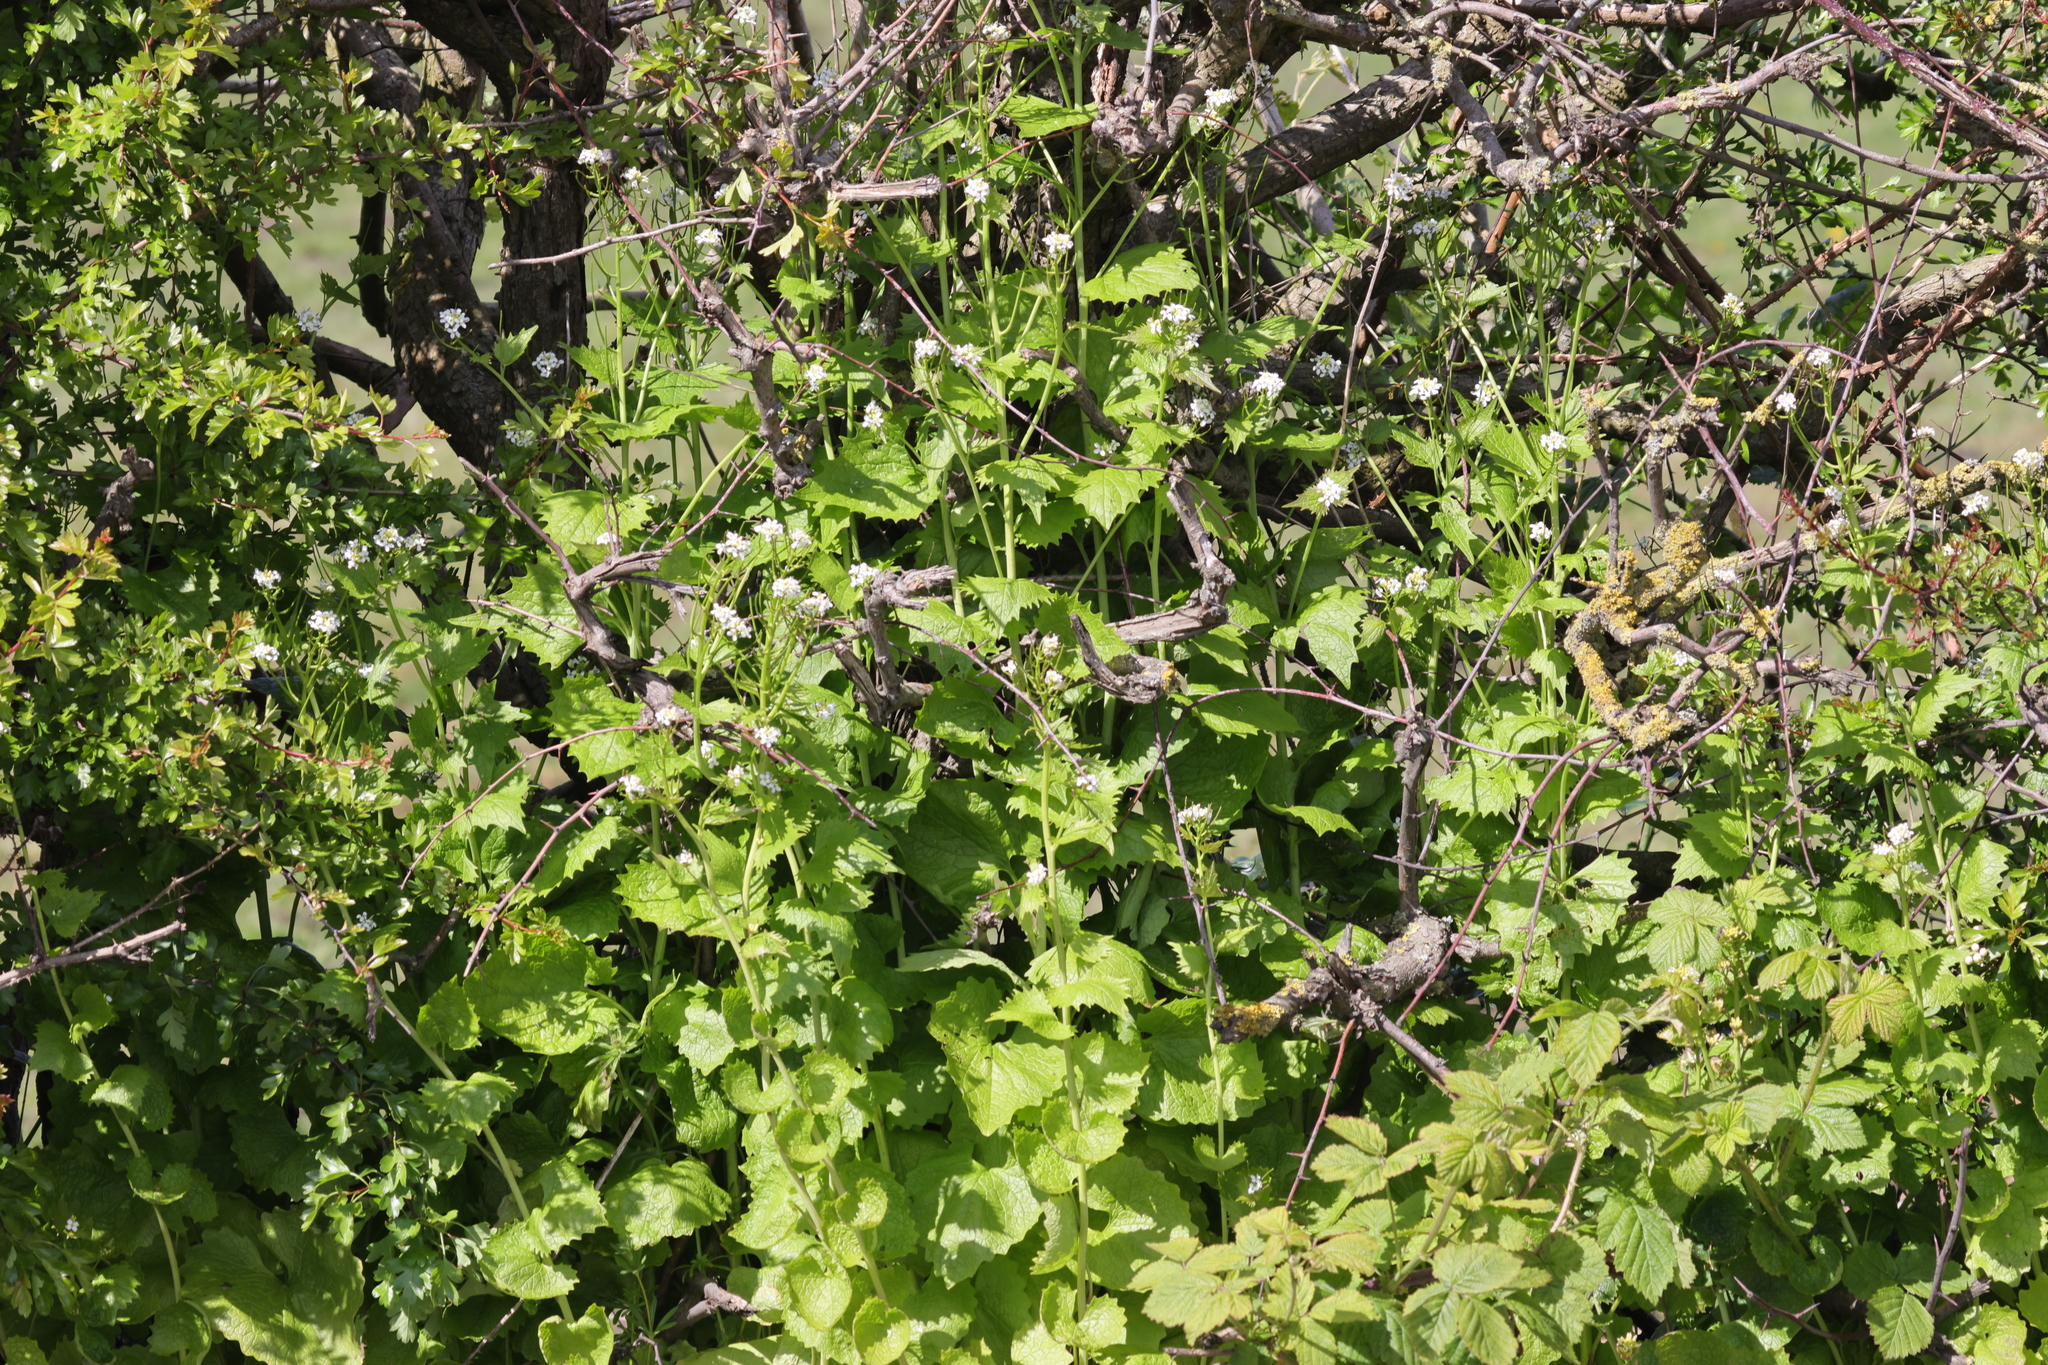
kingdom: Plantae
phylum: Tracheophyta
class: Magnoliopsida
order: Brassicales
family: Brassicaceae
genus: Alliaria
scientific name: Alliaria petiolata
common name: Garlic mustard
